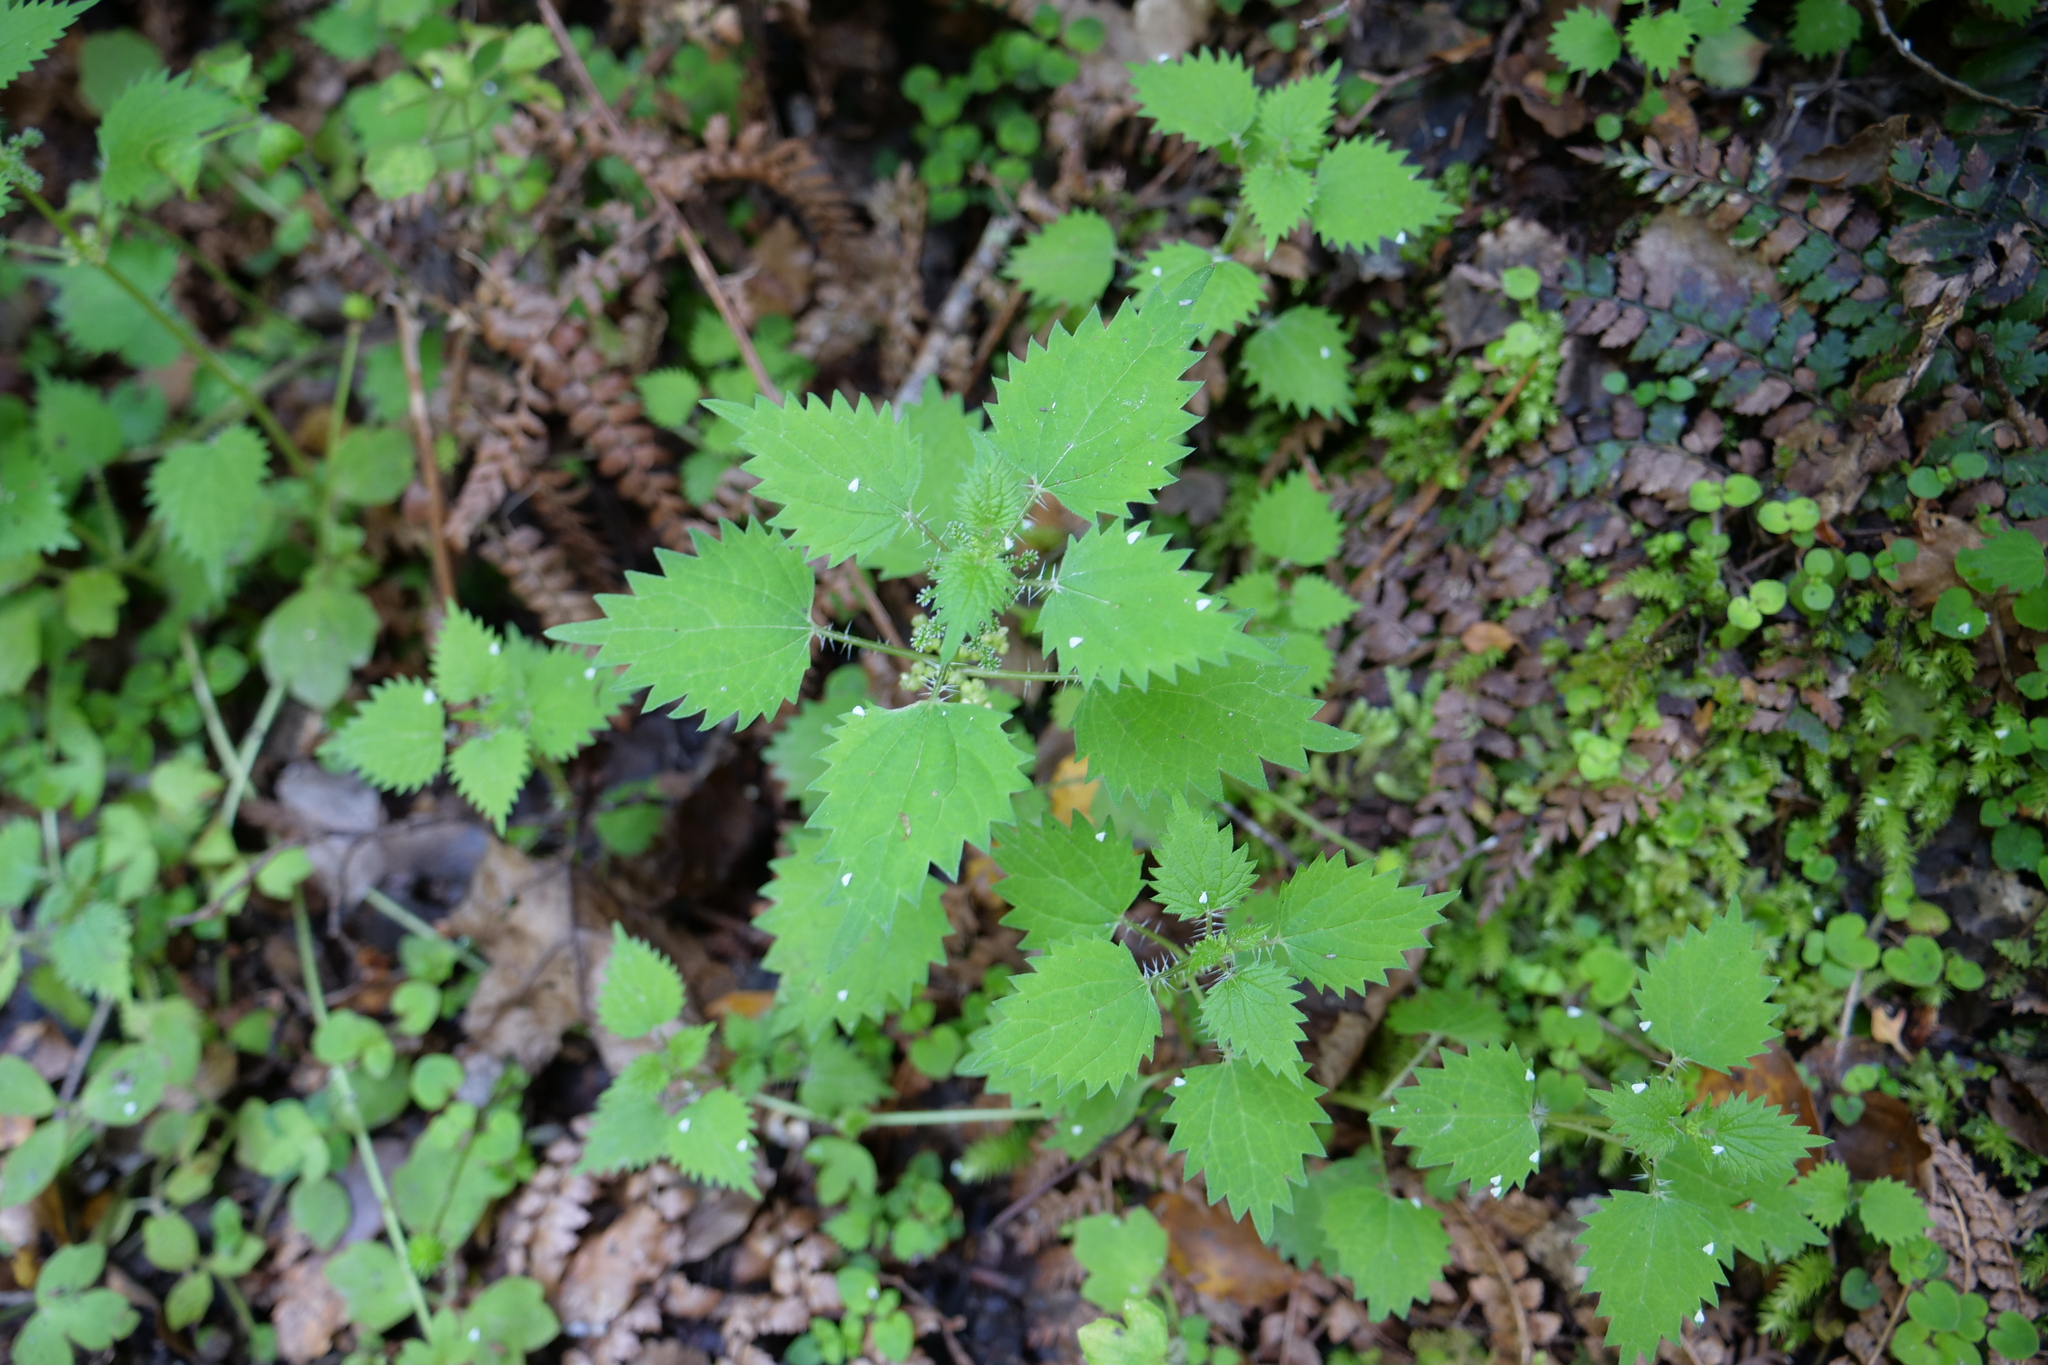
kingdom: Plantae
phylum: Tracheophyta
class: Magnoliopsida
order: Rosales
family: Urticaceae
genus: Urtica
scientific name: Urtica sykesii
